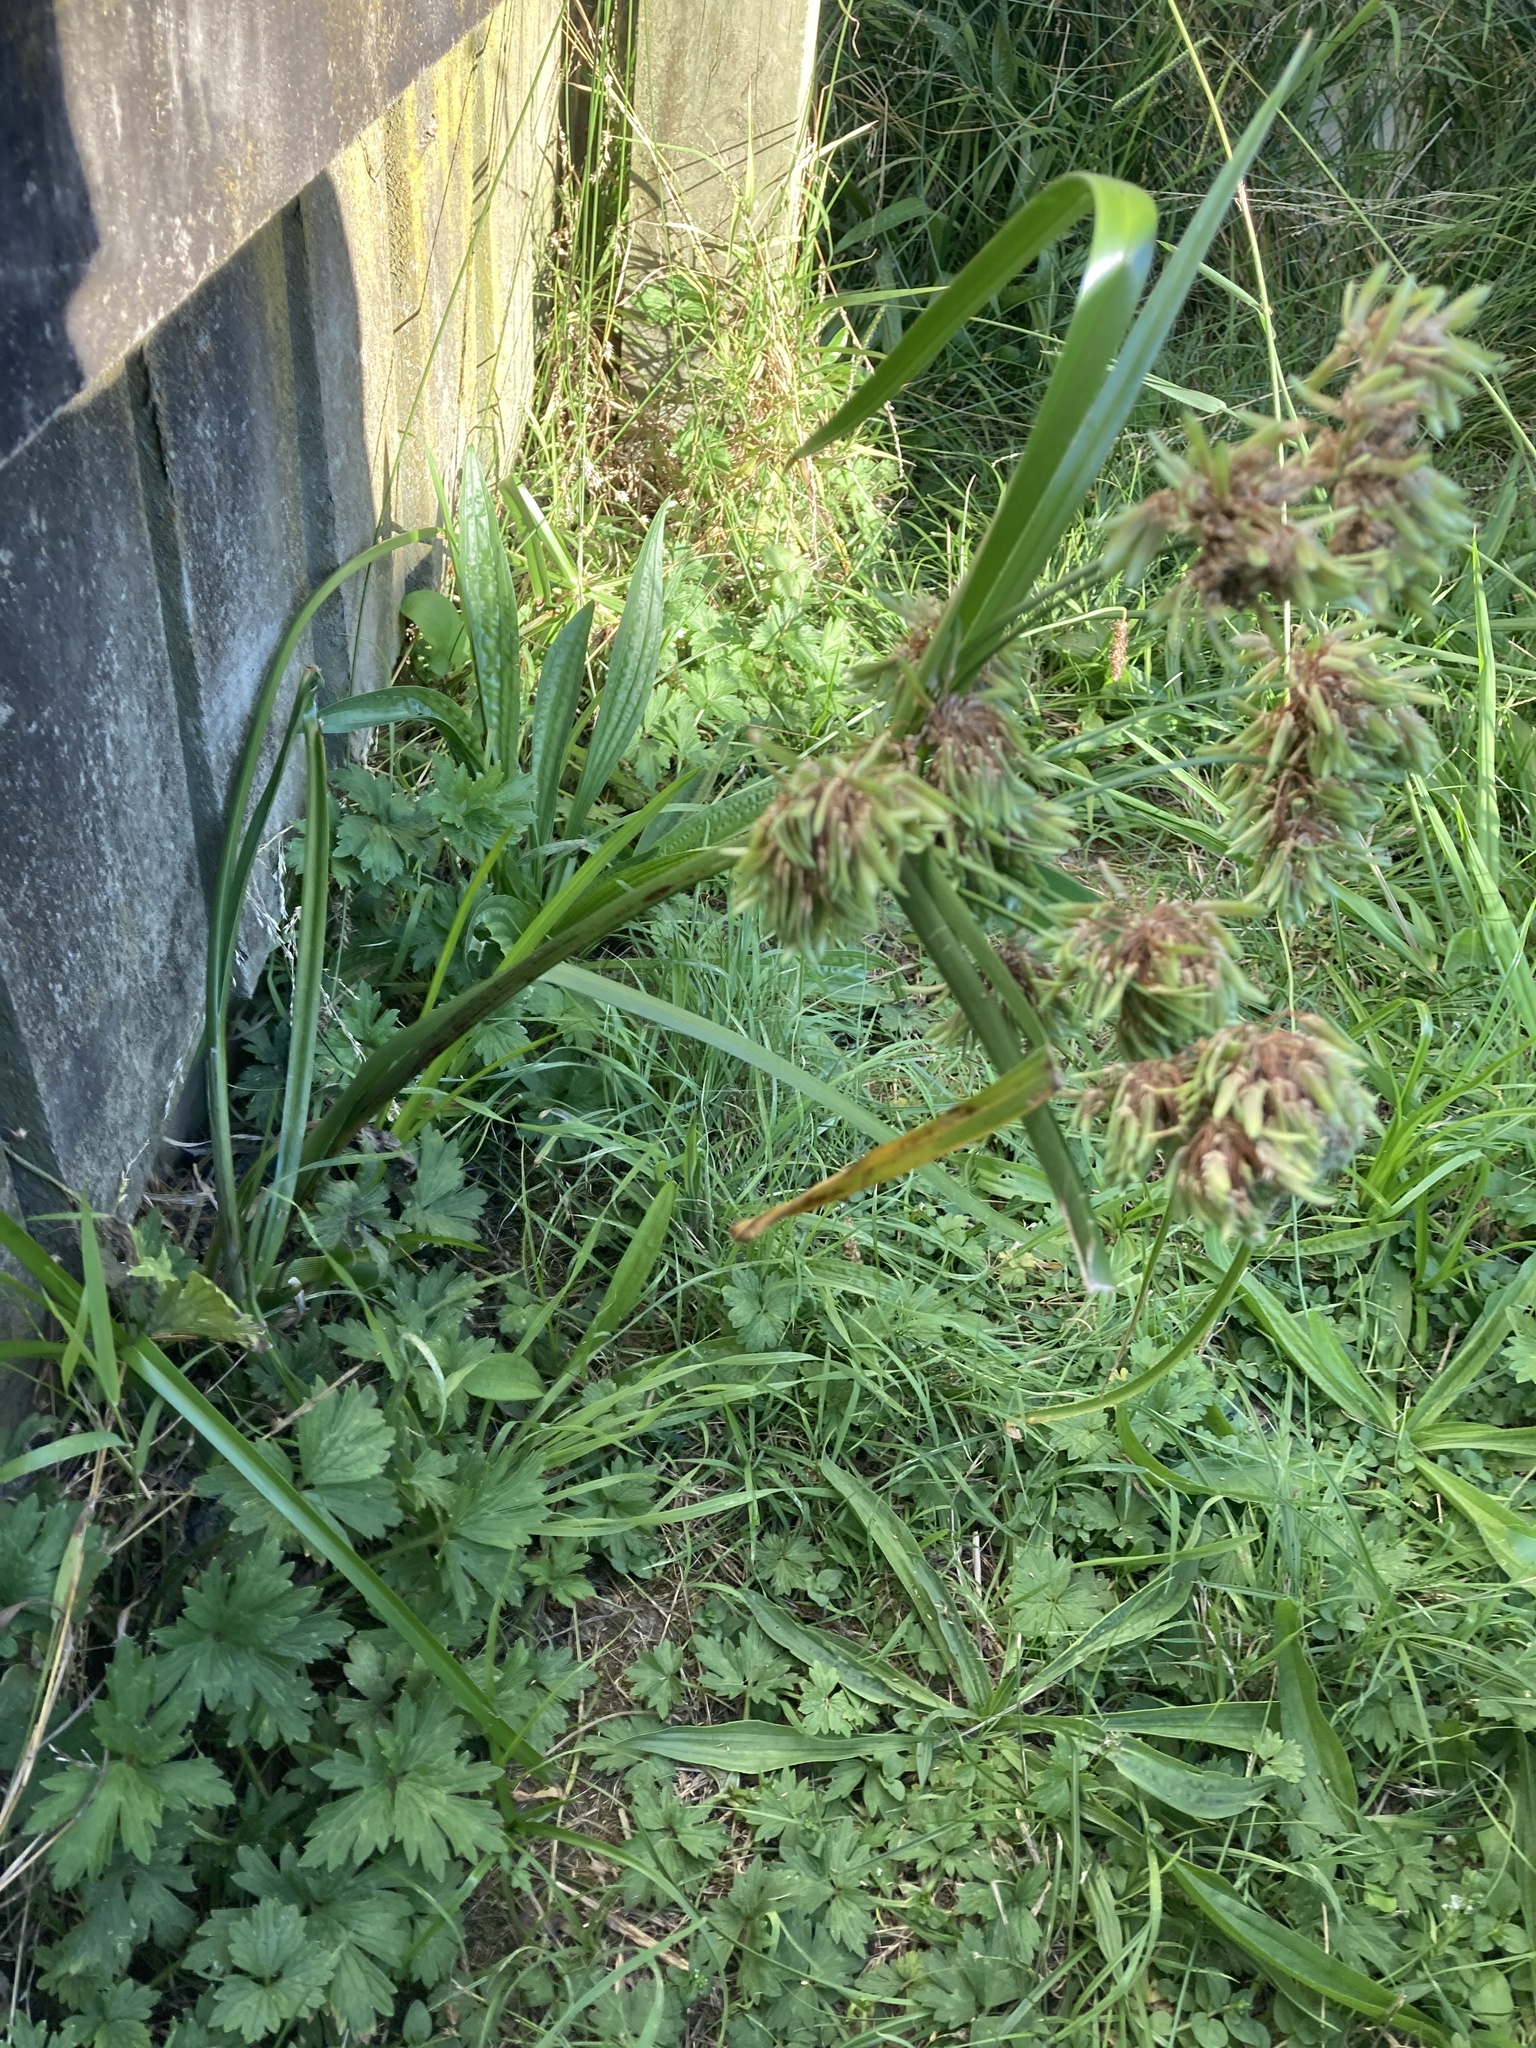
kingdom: Plantae
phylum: Tracheophyta
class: Liliopsida
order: Poales
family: Cyperaceae
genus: Cyperus
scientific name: Cyperus eragrostis
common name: Tall flatsedge
